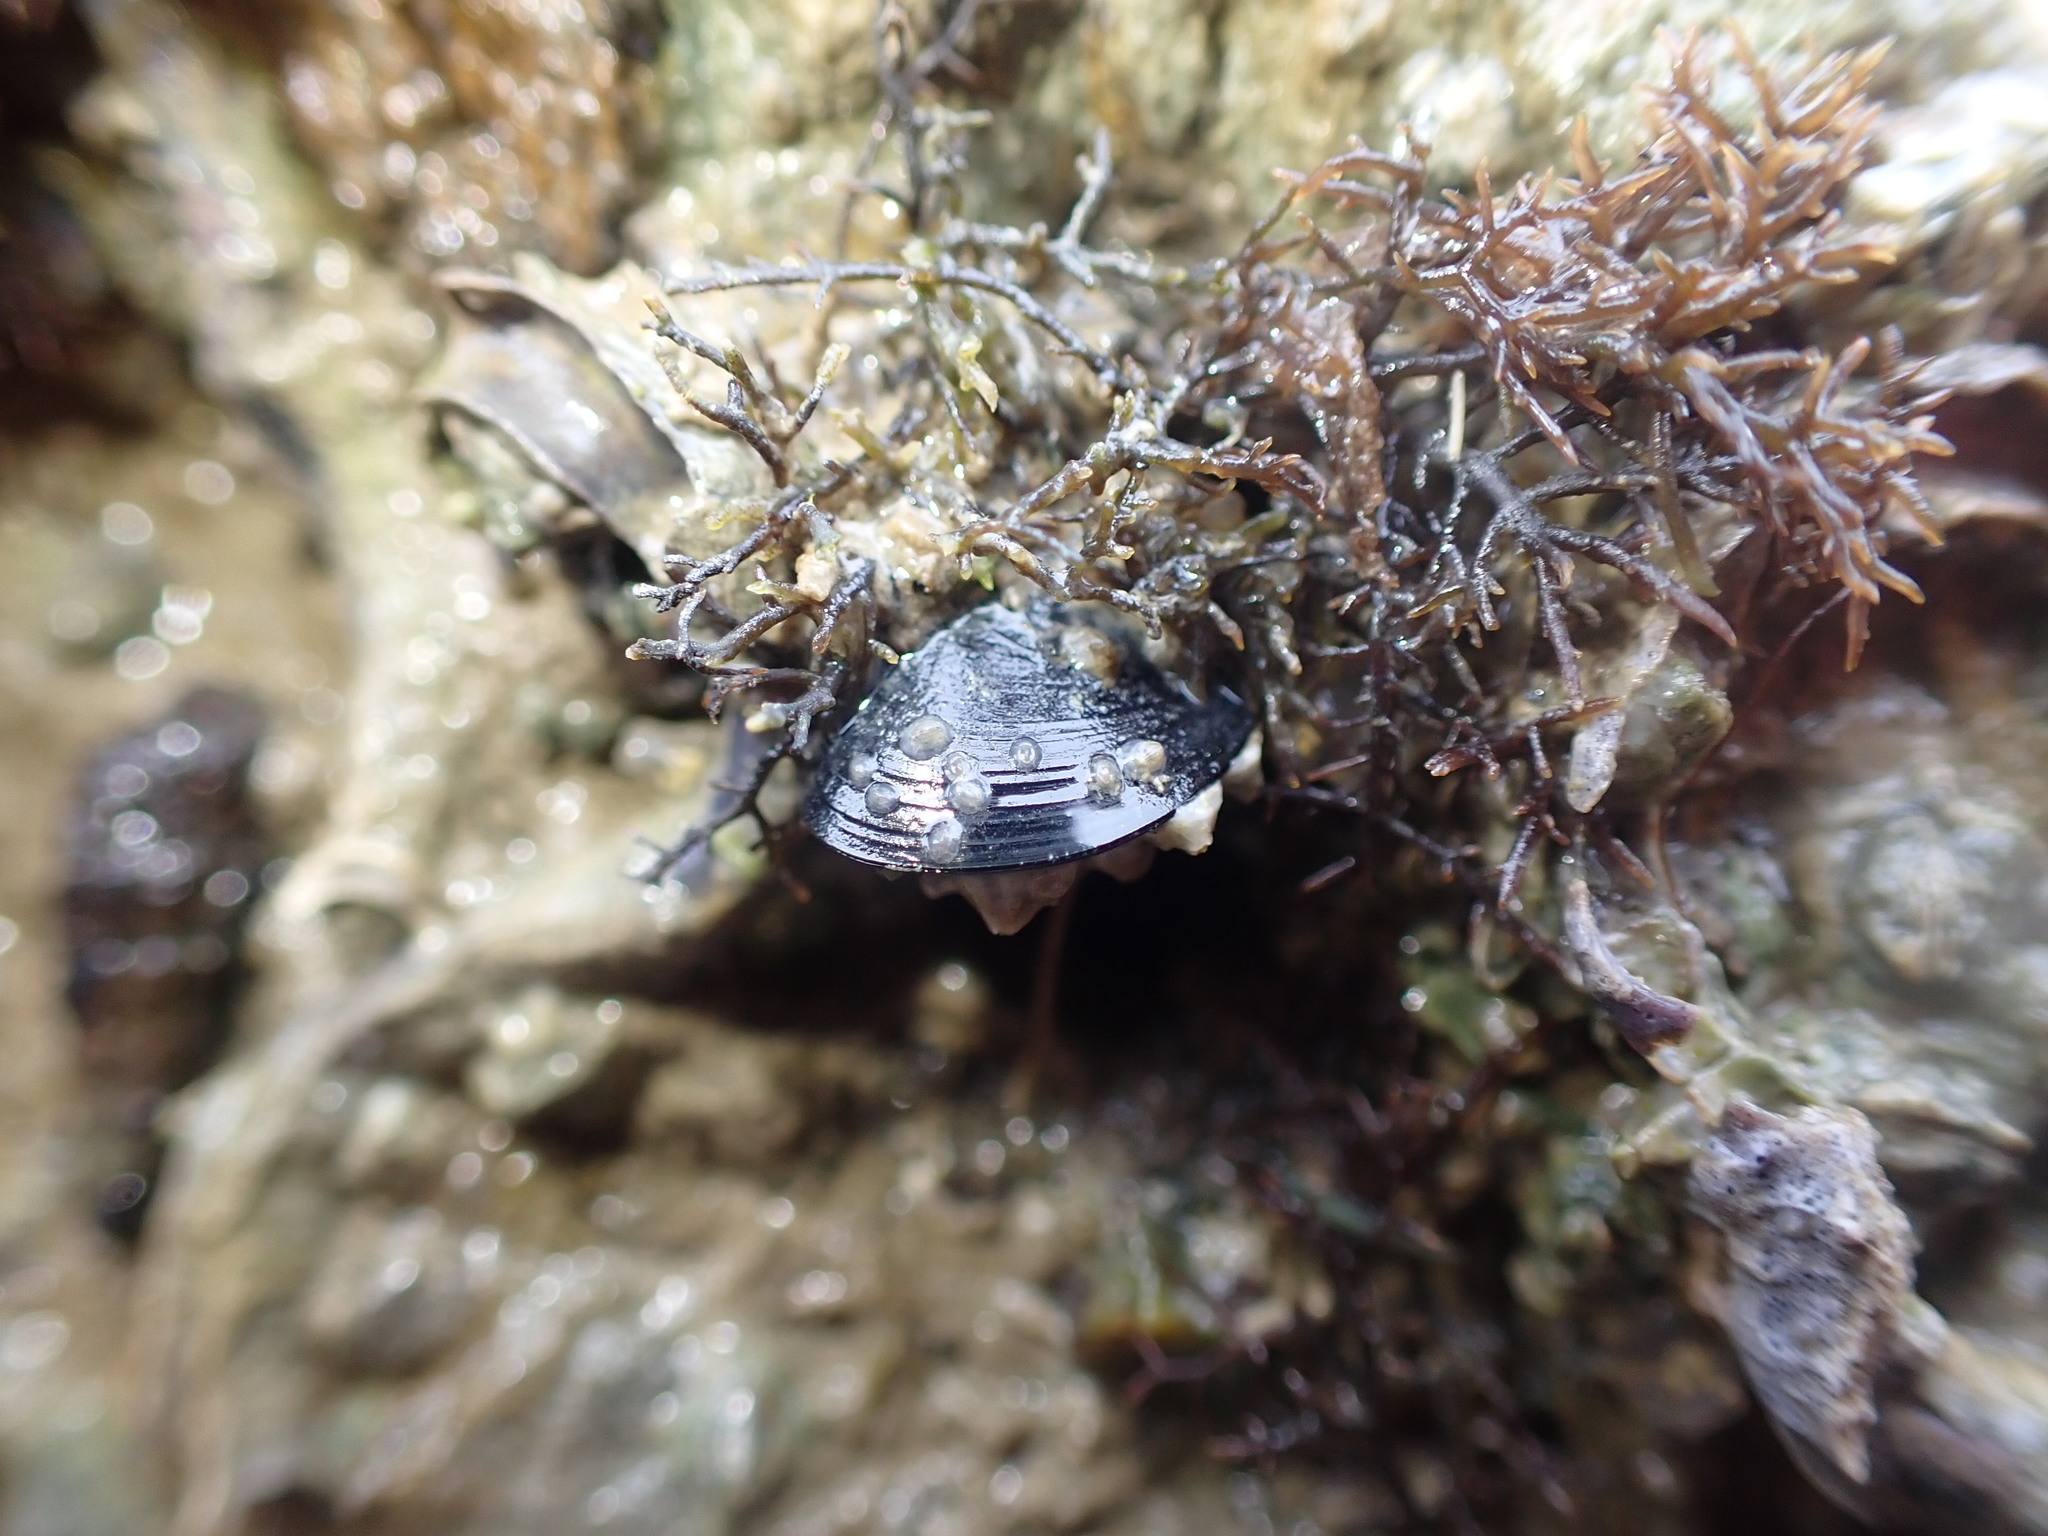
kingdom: Animalia
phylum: Mollusca
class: Bivalvia
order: Mytilida
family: Mytilidae
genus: Xenostrobus
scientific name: Xenostrobus neozelanicus
